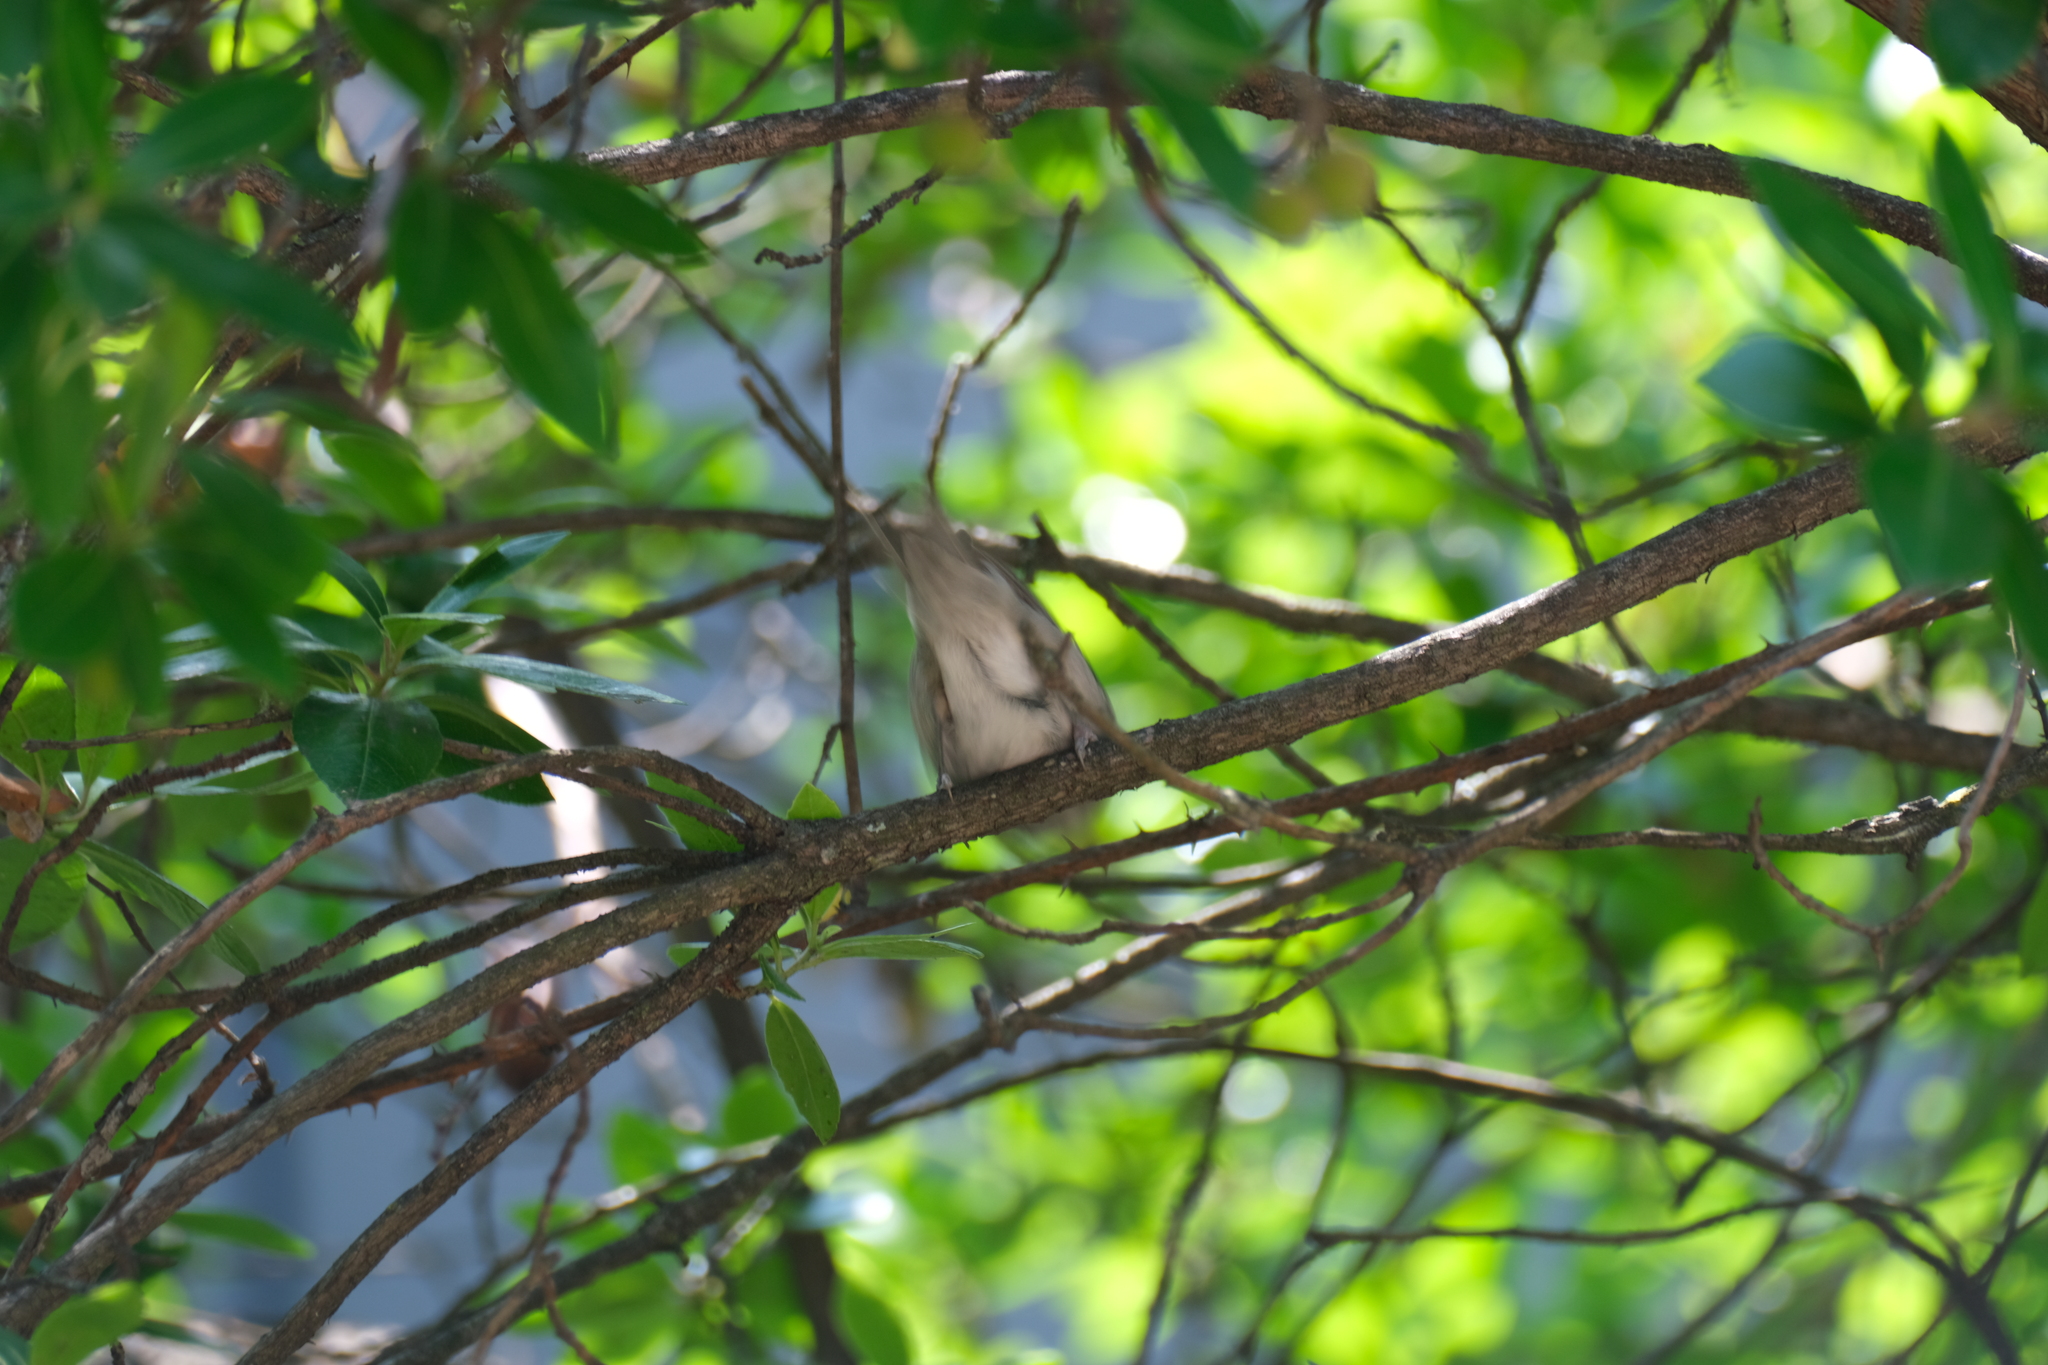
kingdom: Animalia
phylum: Chordata
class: Aves
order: Passeriformes
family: Sylviidae
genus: Sylvia
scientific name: Sylvia atricapilla
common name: Eurasian blackcap
